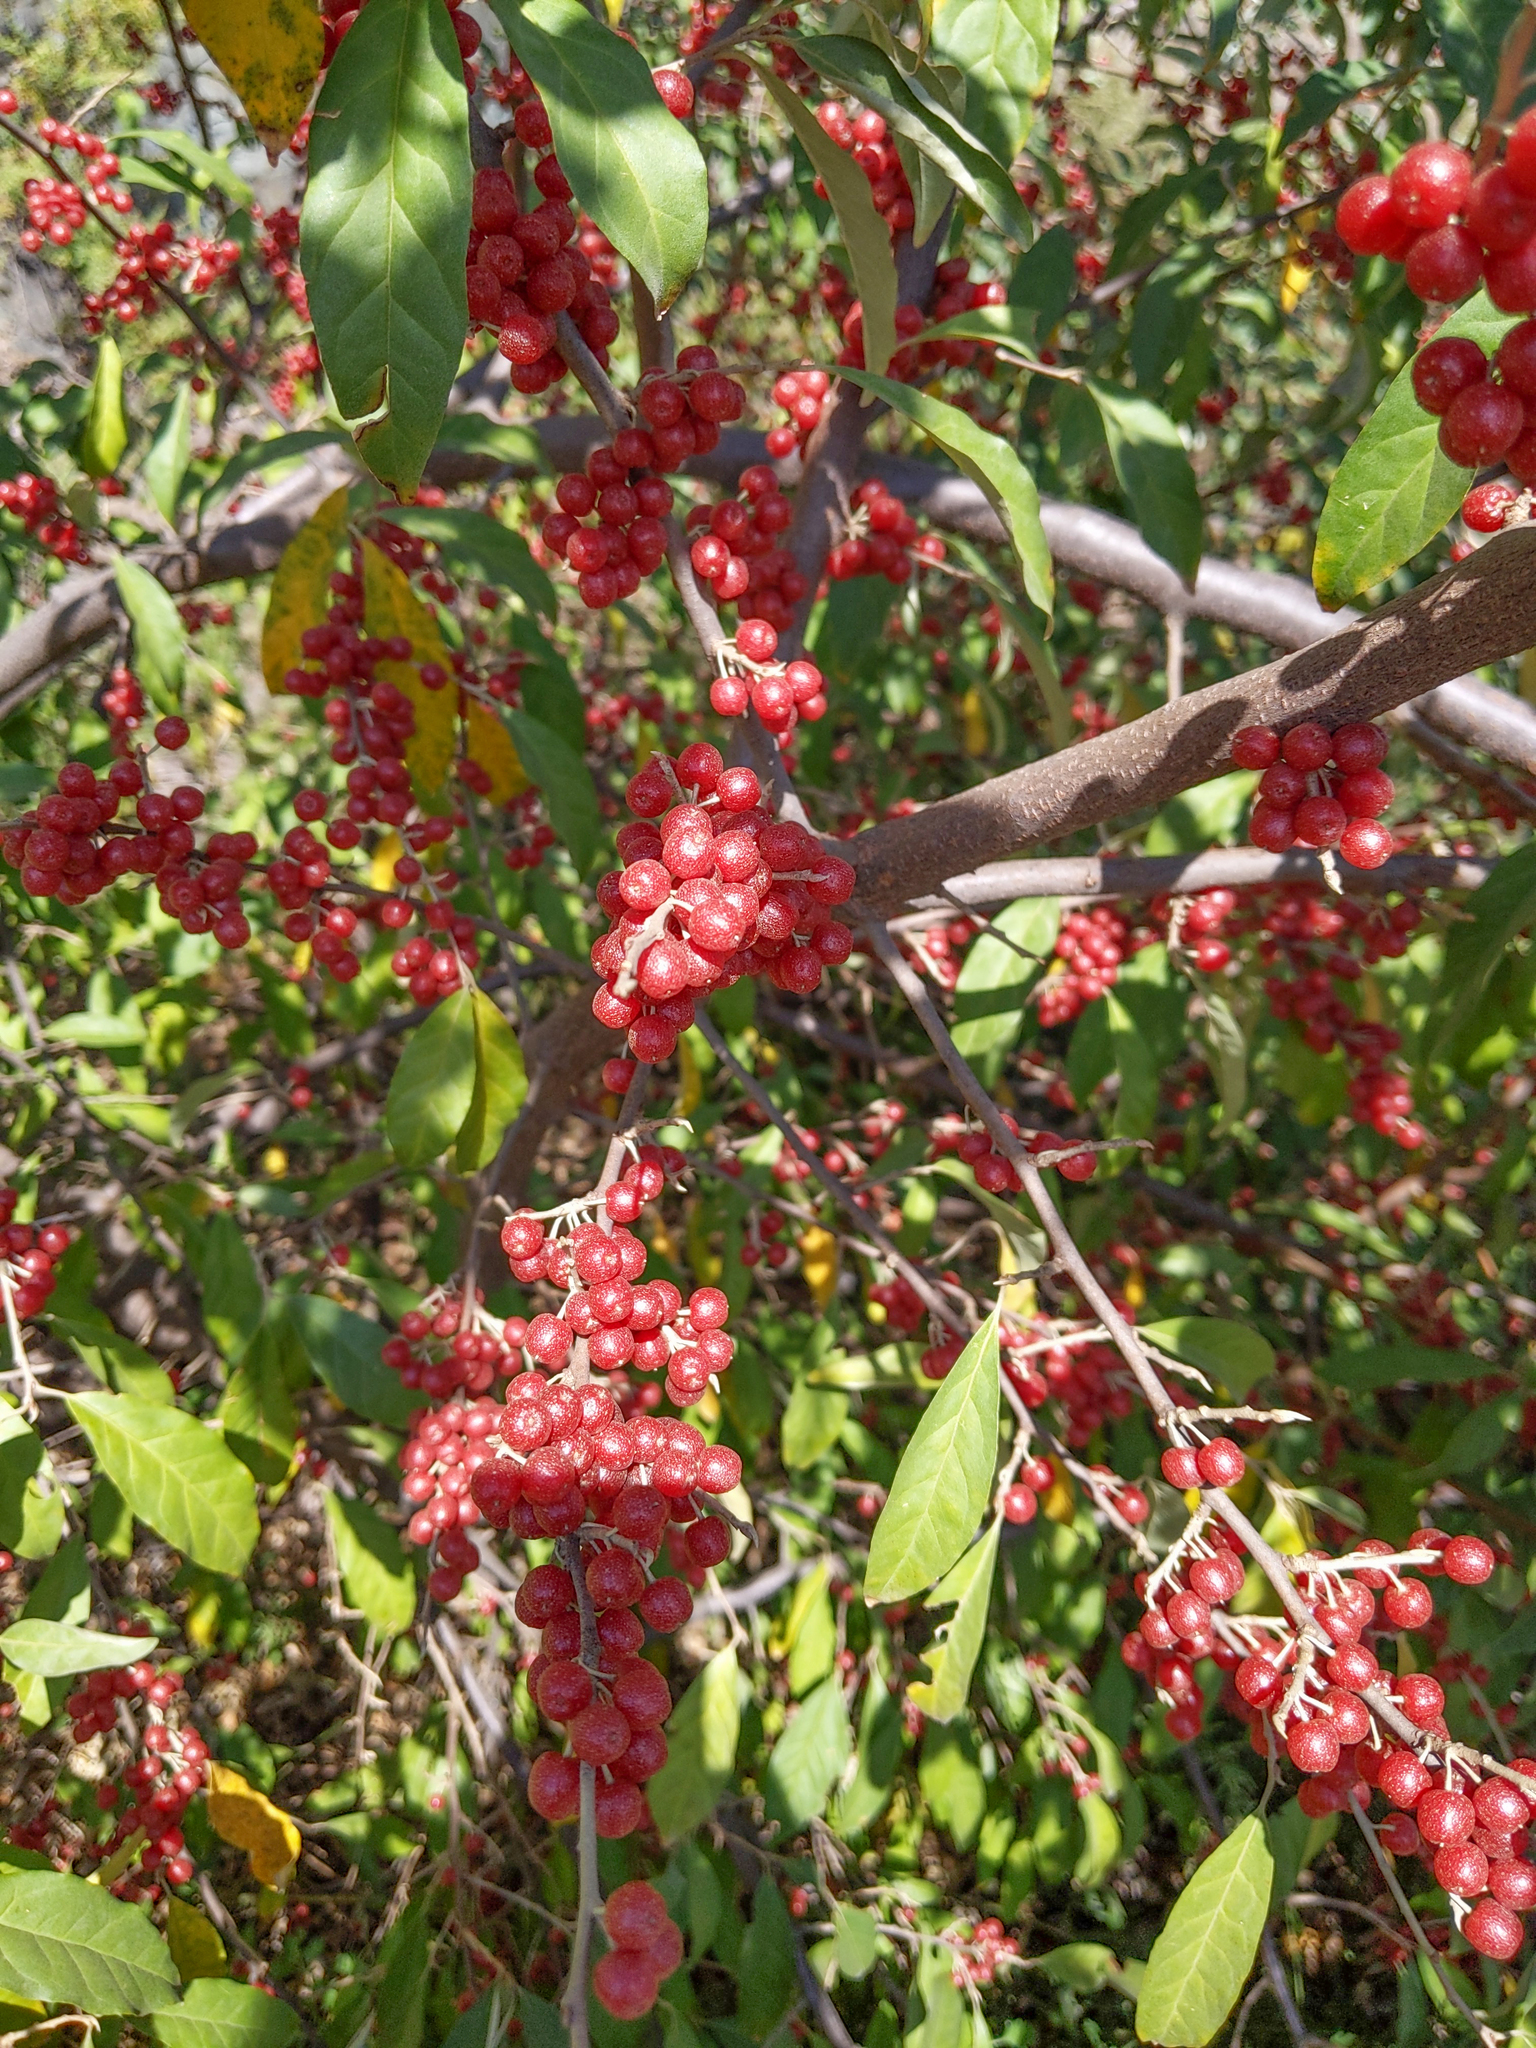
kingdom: Plantae
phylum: Tracheophyta
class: Magnoliopsida
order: Rosales
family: Elaeagnaceae
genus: Elaeagnus
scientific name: Elaeagnus umbellata
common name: Autumn olive
